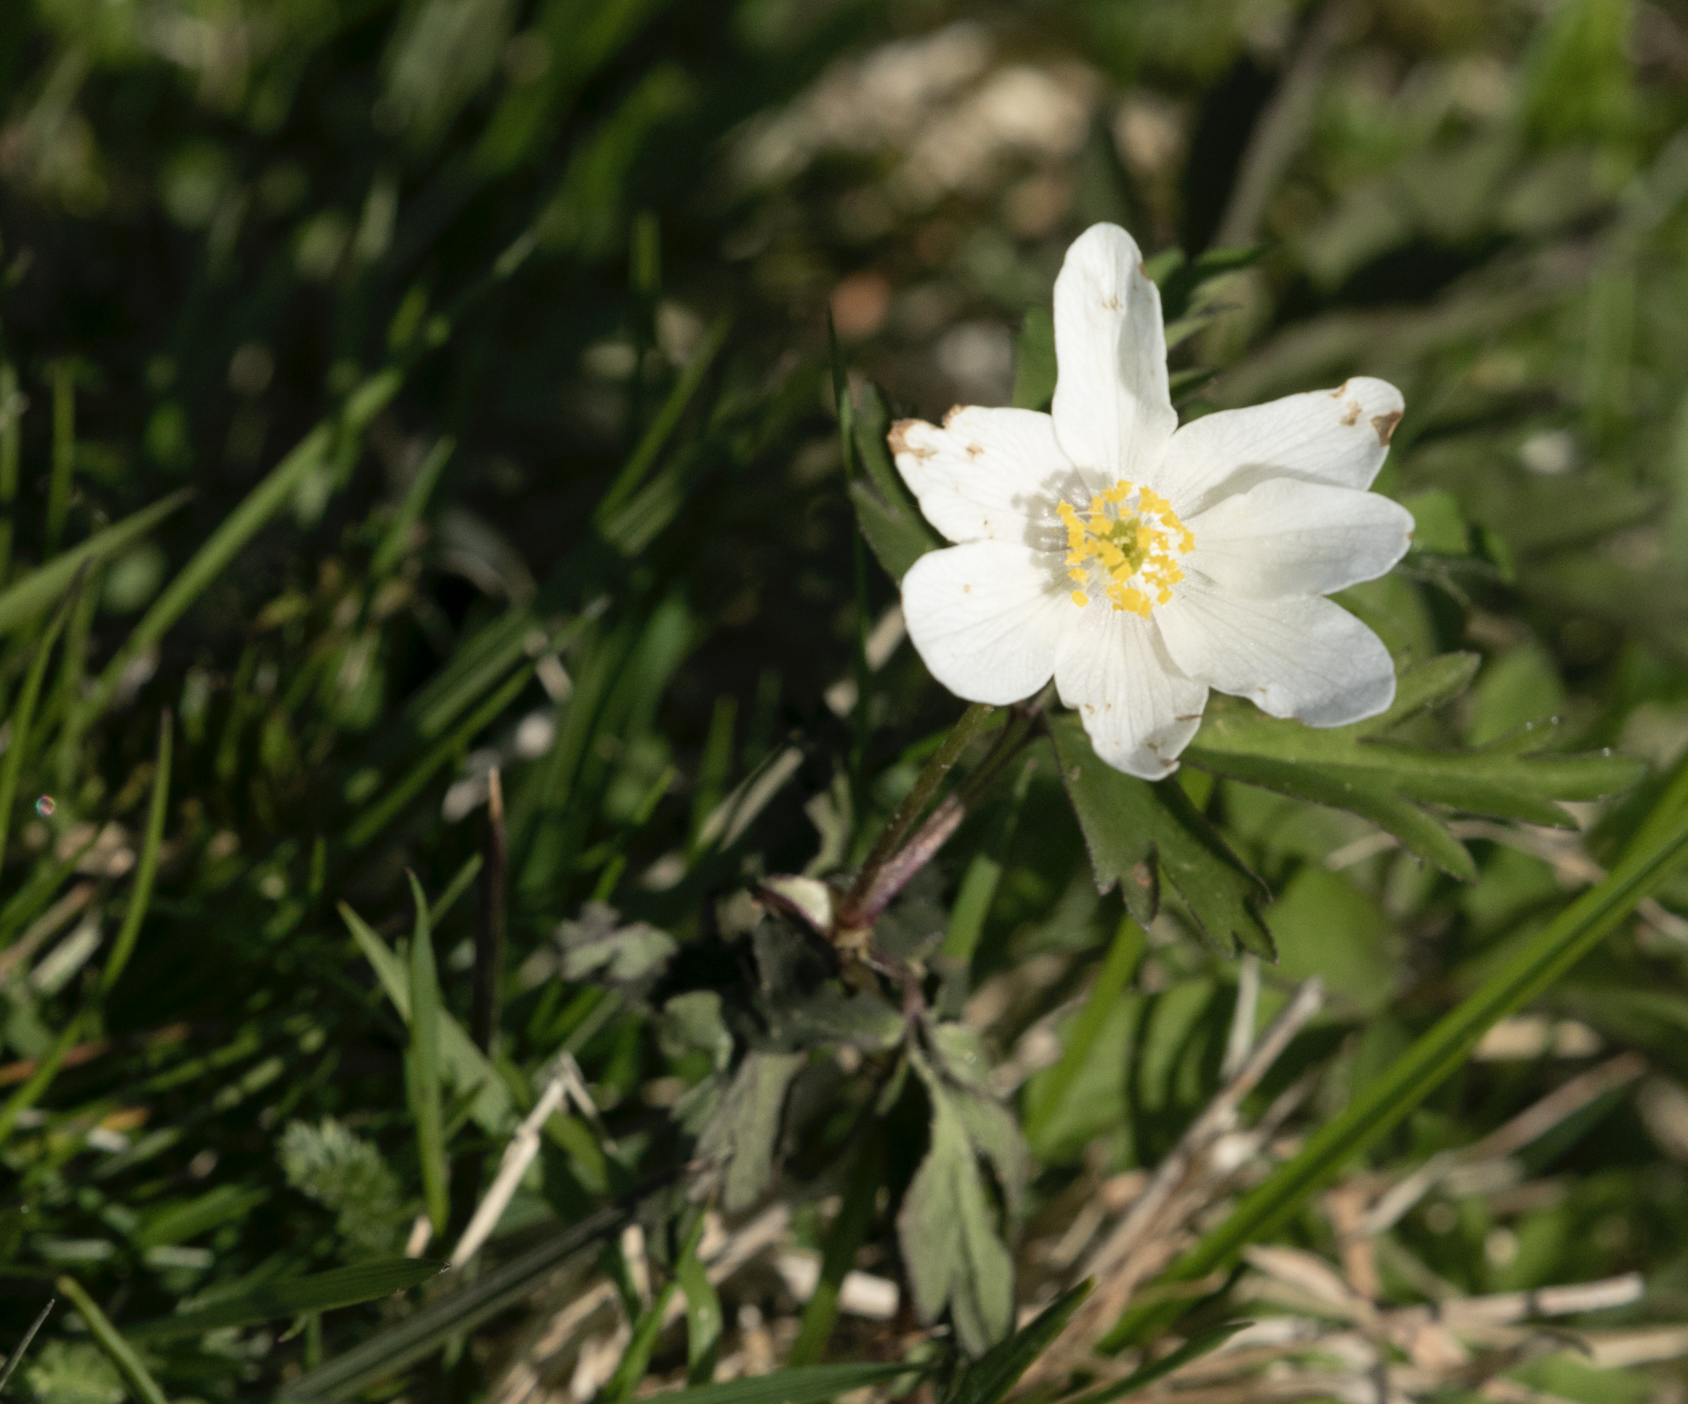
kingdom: Plantae
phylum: Tracheophyta
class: Magnoliopsida
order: Ranunculales
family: Ranunculaceae
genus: Anemone
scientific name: Anemone nemorosa
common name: Wood anemone
